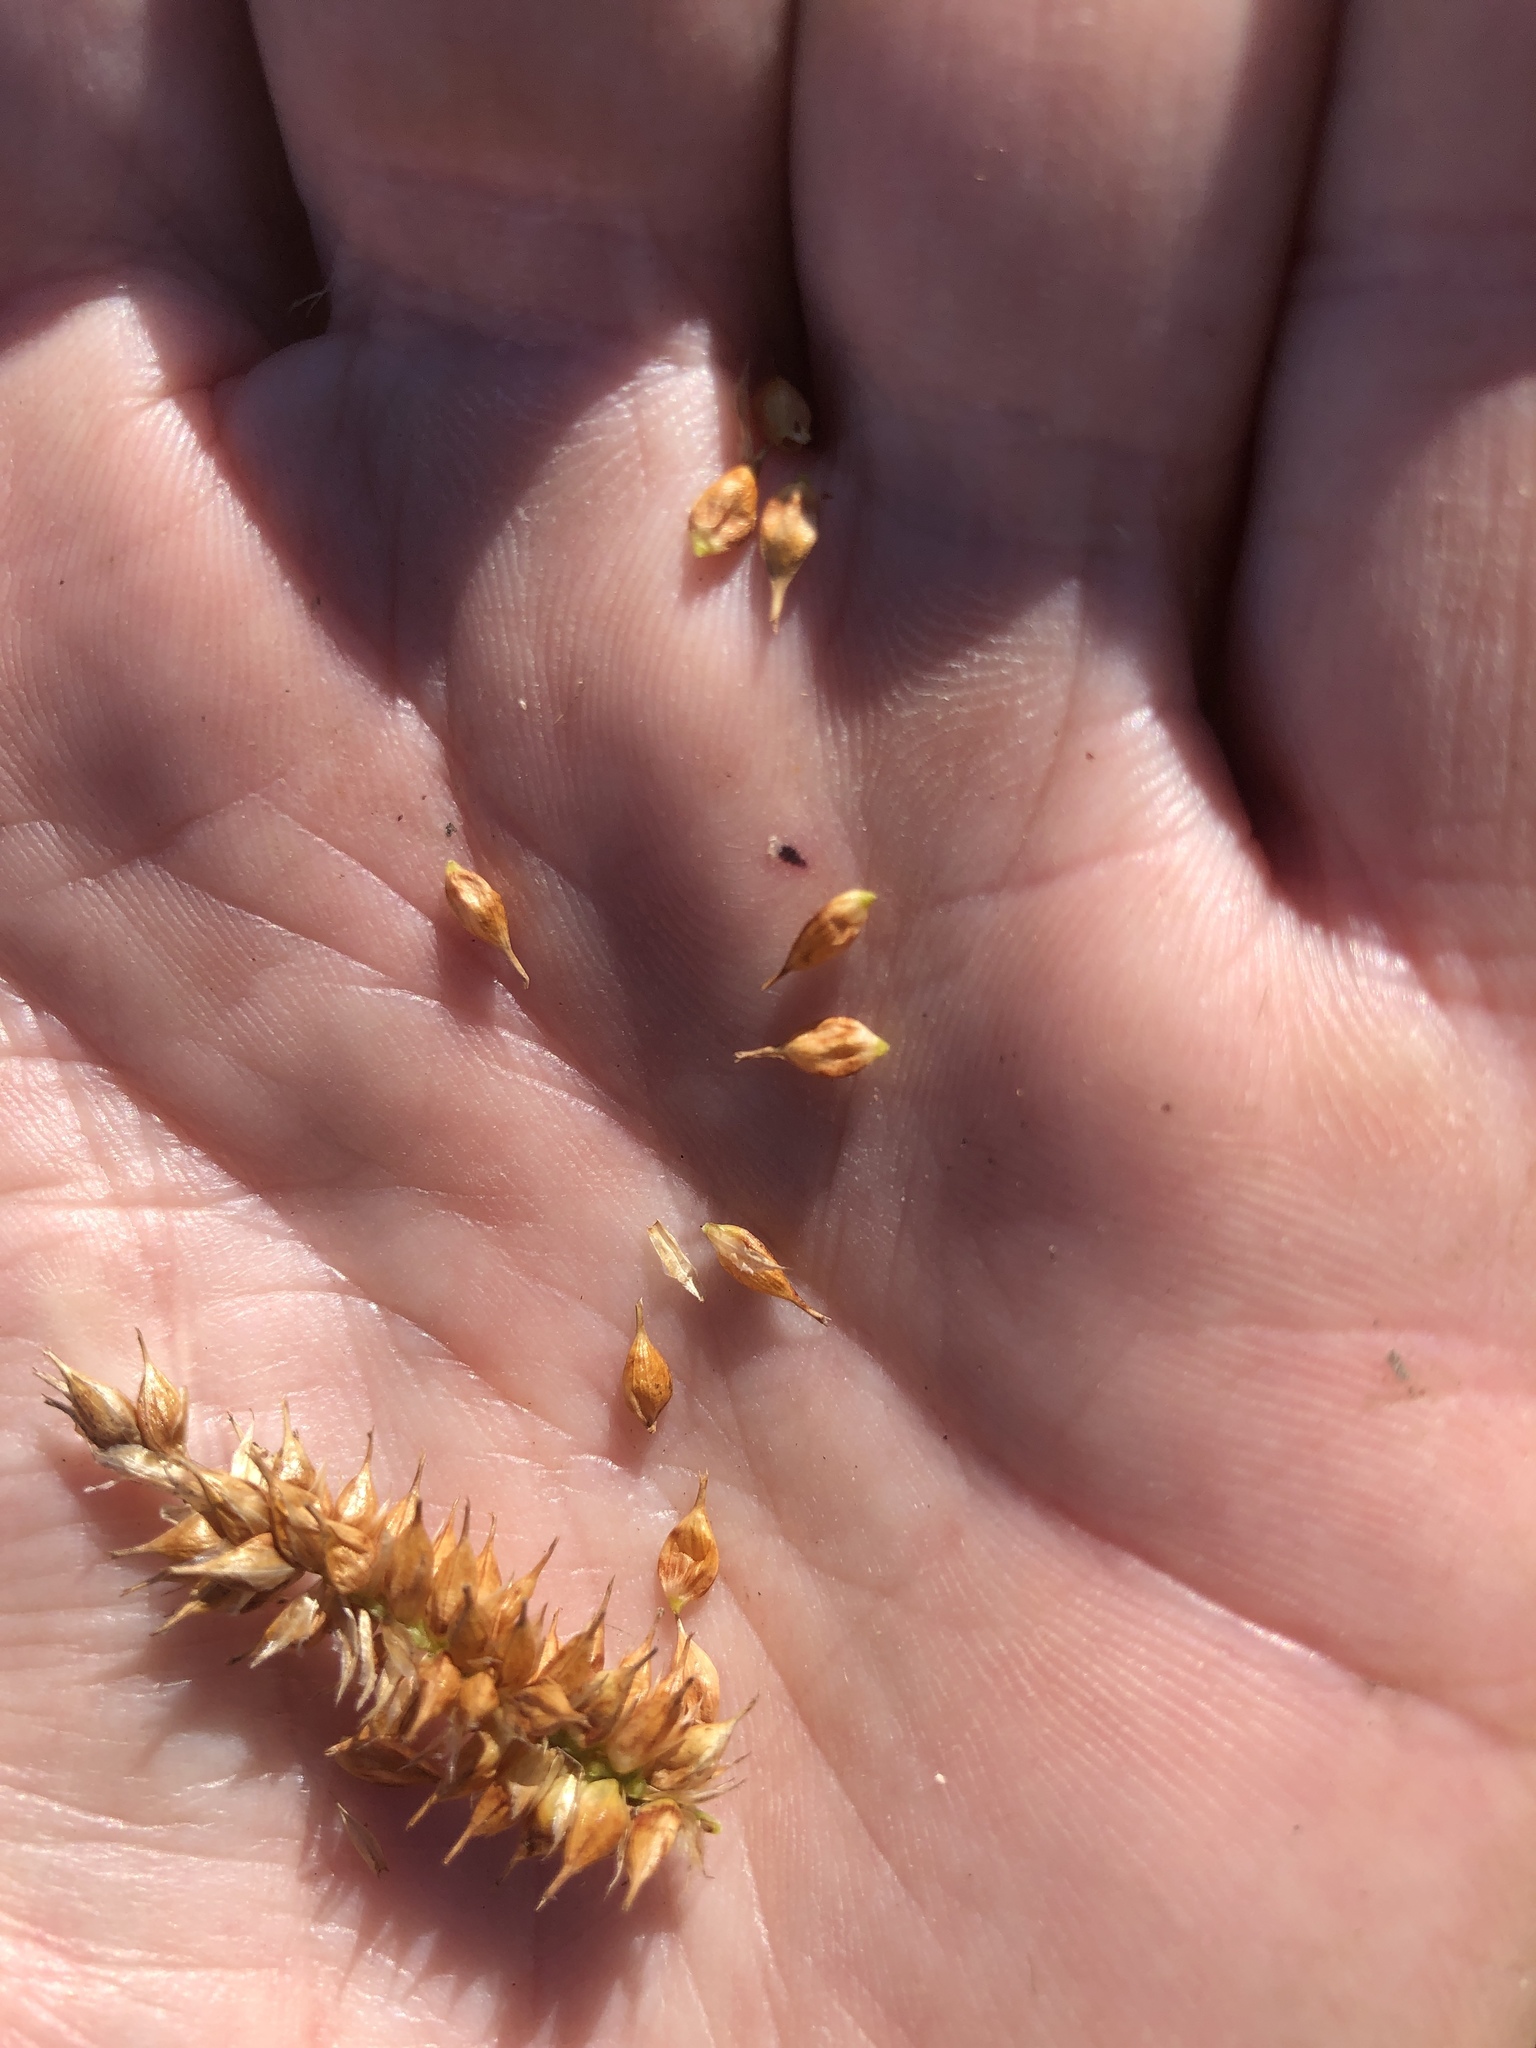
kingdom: Plantae
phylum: Tracheophyta
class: Liliopsida
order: Poales
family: Cyperaceae
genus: Carex
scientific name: Carex utriculata
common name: Beaked sedge
